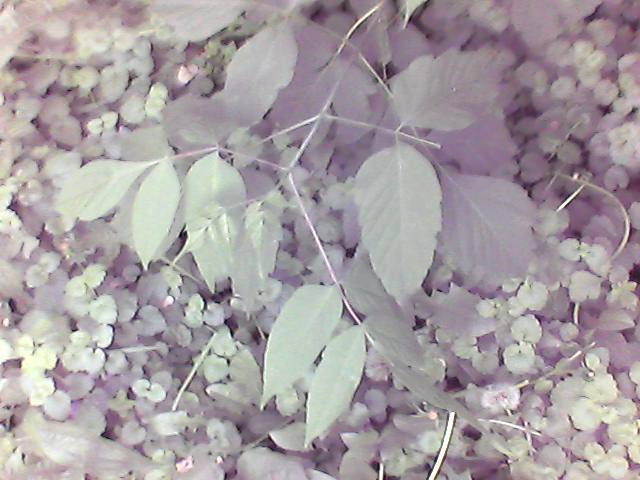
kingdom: Plantae
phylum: Tracheophyta
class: Magnoliopsida
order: Sapindales
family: Sapindaceae
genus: Acer
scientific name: Acer negundo
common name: Ashleaf maple
